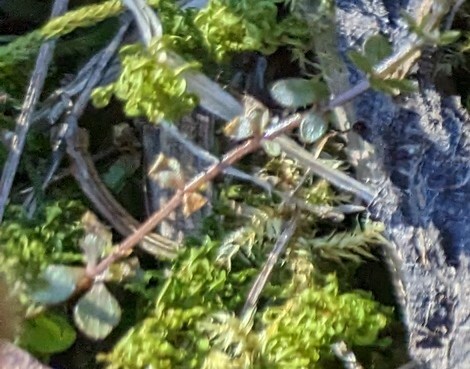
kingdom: Plantae
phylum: Tracheophyta
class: Magnoliopsida
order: Dipsacales
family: Caprifoliaceae
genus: Linnaea
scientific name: Linnaea borealis
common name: Twinflower
